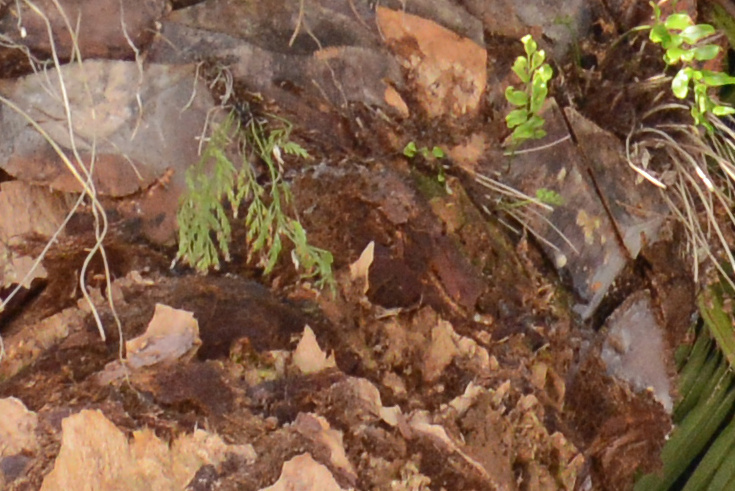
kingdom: Plantae
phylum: Tracheophyta
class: Polypodiopsida
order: Polypodiales
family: Aspleniaceae
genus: Asplenium
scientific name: Asplenium flaccidum
